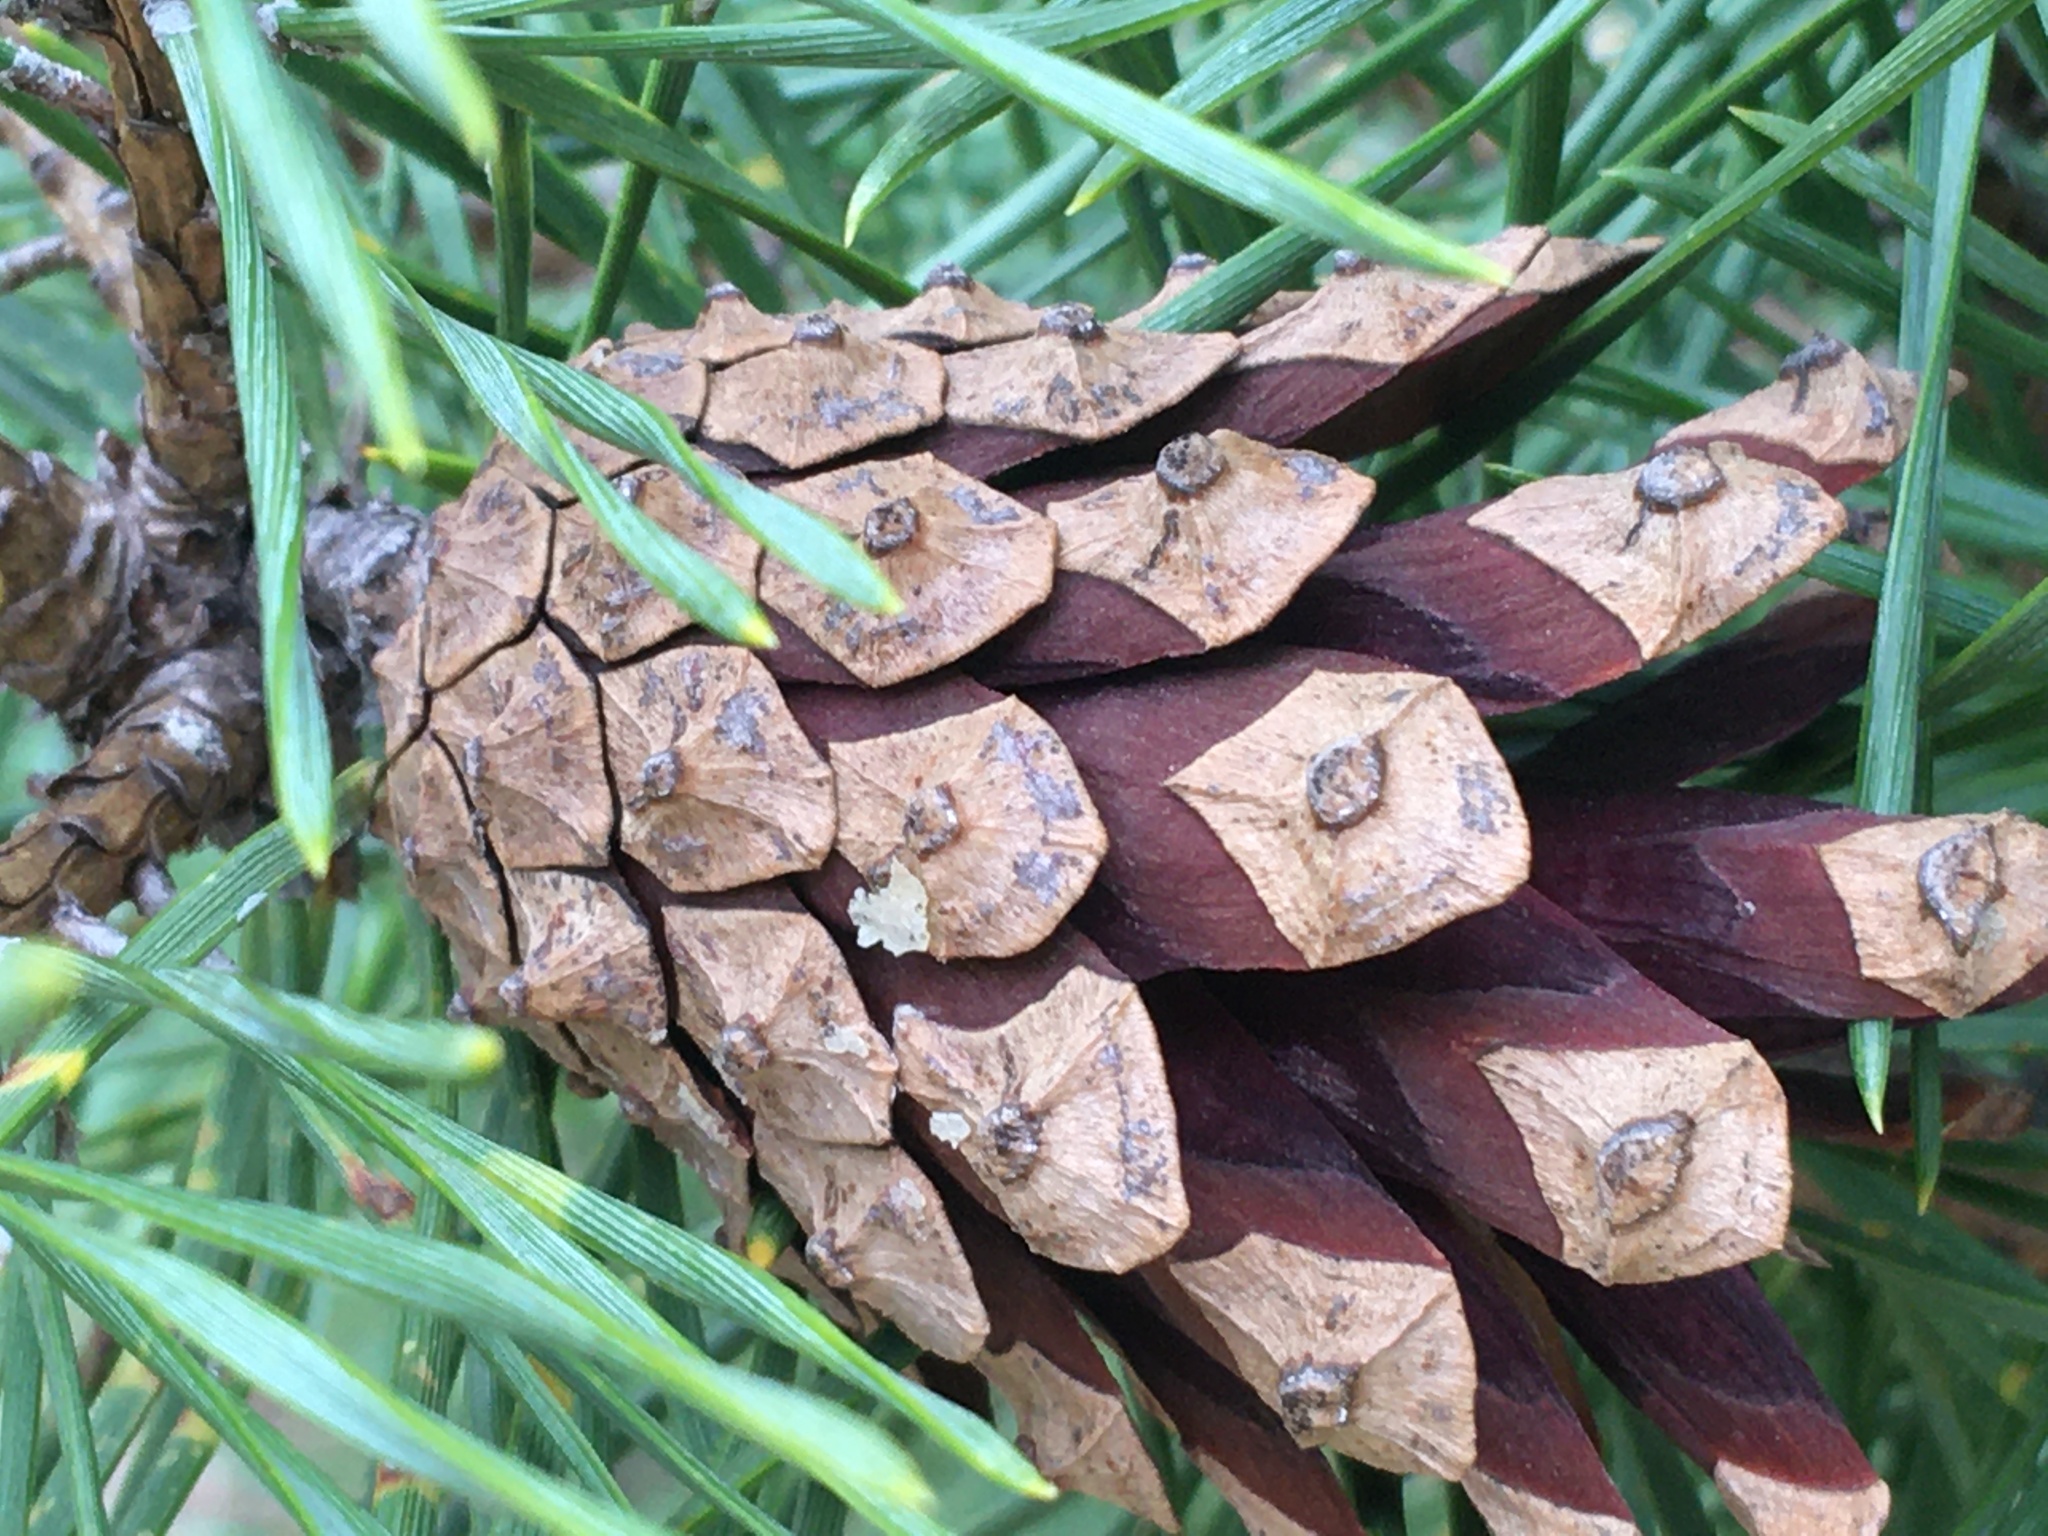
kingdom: Plantae
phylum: Tracheophyta
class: Pinopsida
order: Pinales
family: Pinaceae
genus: Pinus
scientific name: Pinus virginiana
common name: Scrub pine
